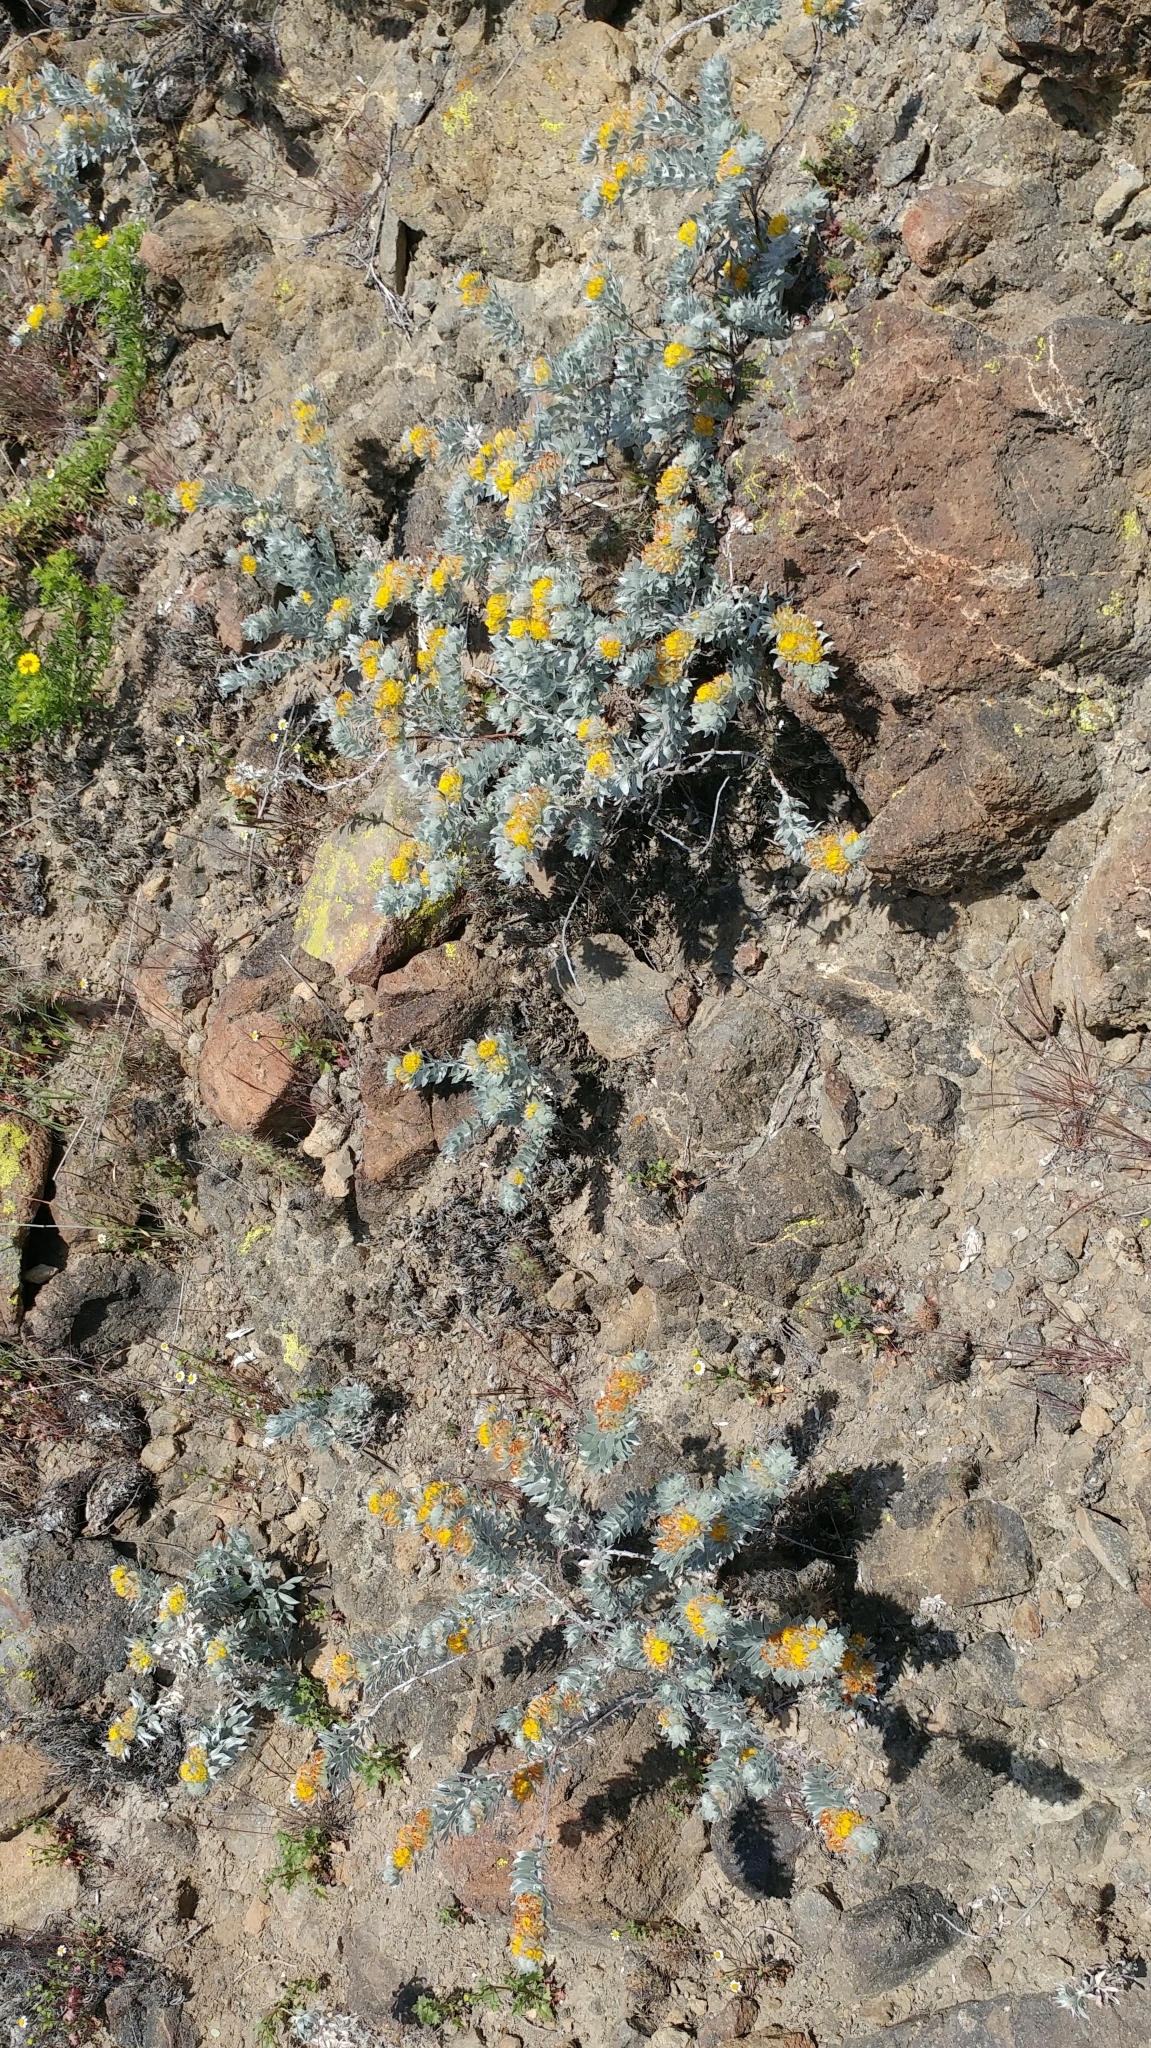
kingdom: Plantae
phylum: Tracheophyta
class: Magnoliopsida
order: Fabales
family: Fabaceae
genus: Acmispon
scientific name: Acmispon argophyllus
